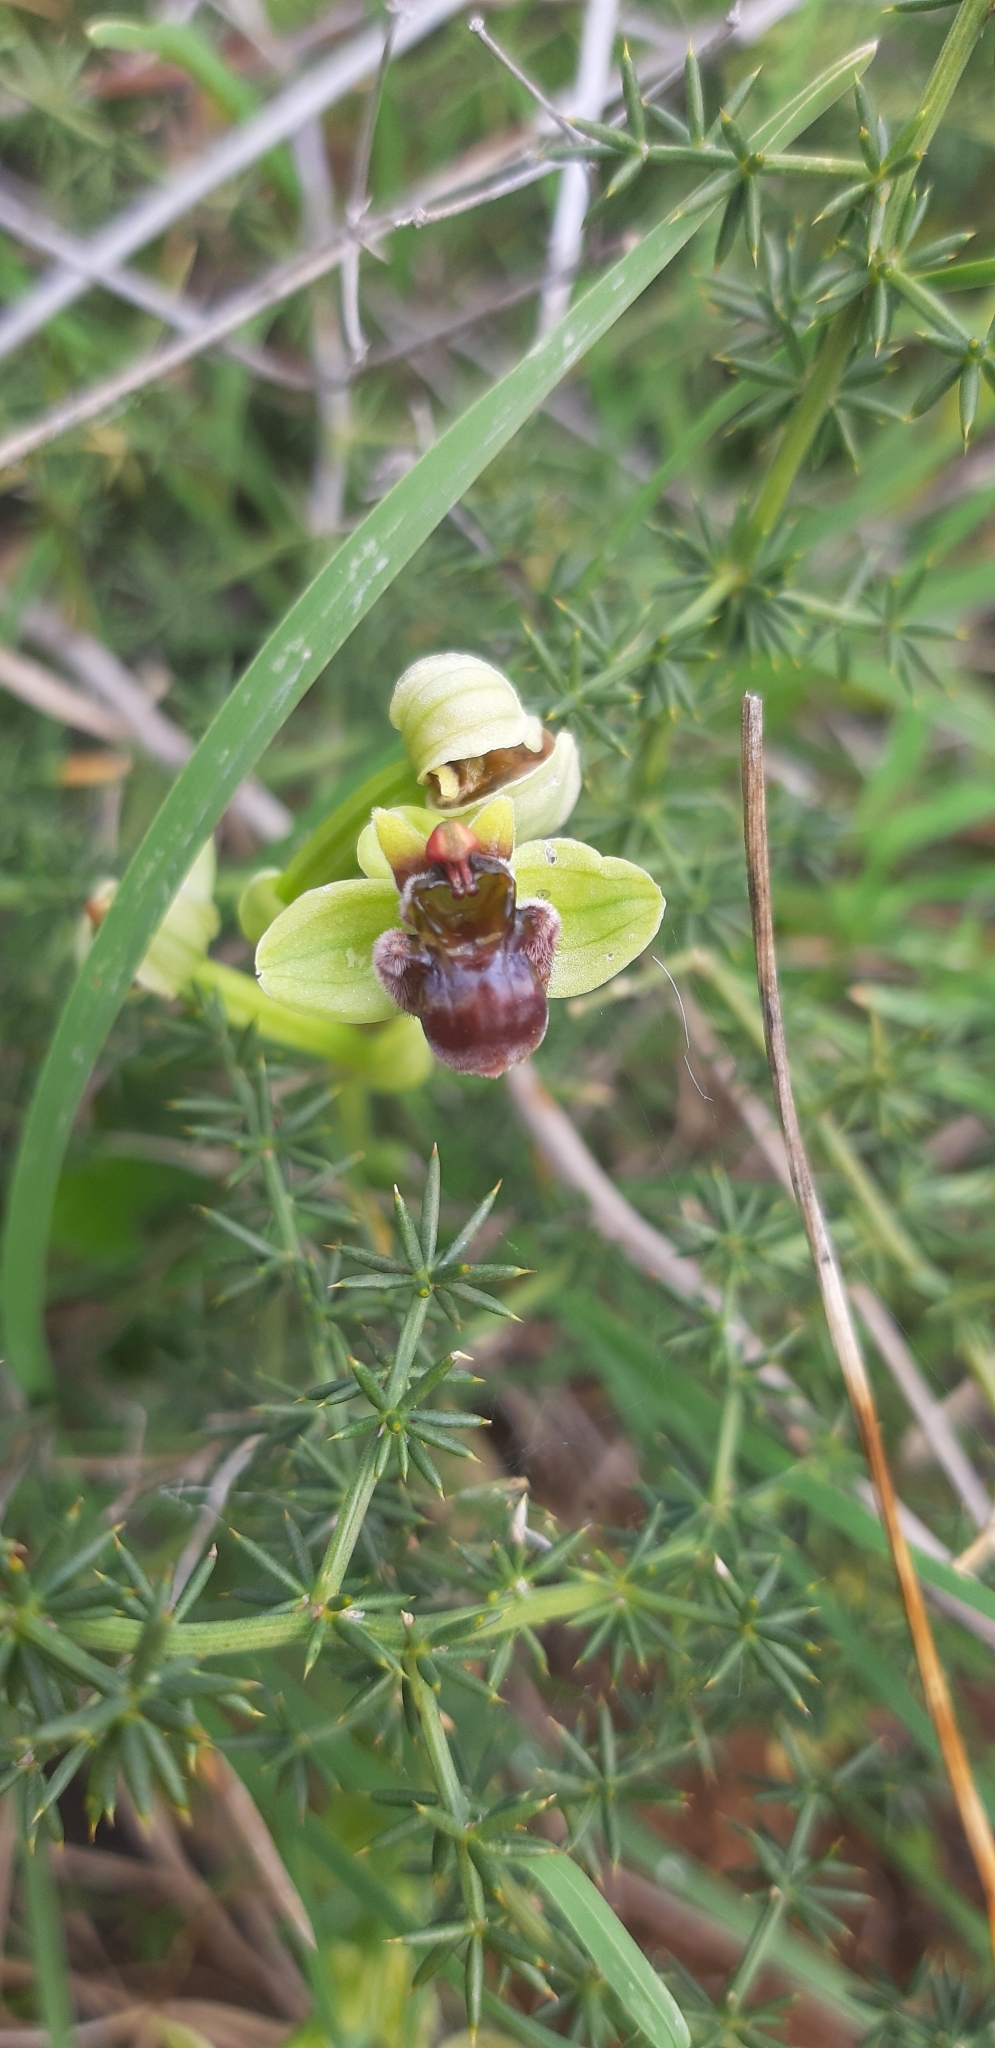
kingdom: Plantae
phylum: Tracheophyta
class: Liliopsida
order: Asparagales
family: Orchidaceae
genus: Ophrys
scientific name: Ophrys bombyliflora
